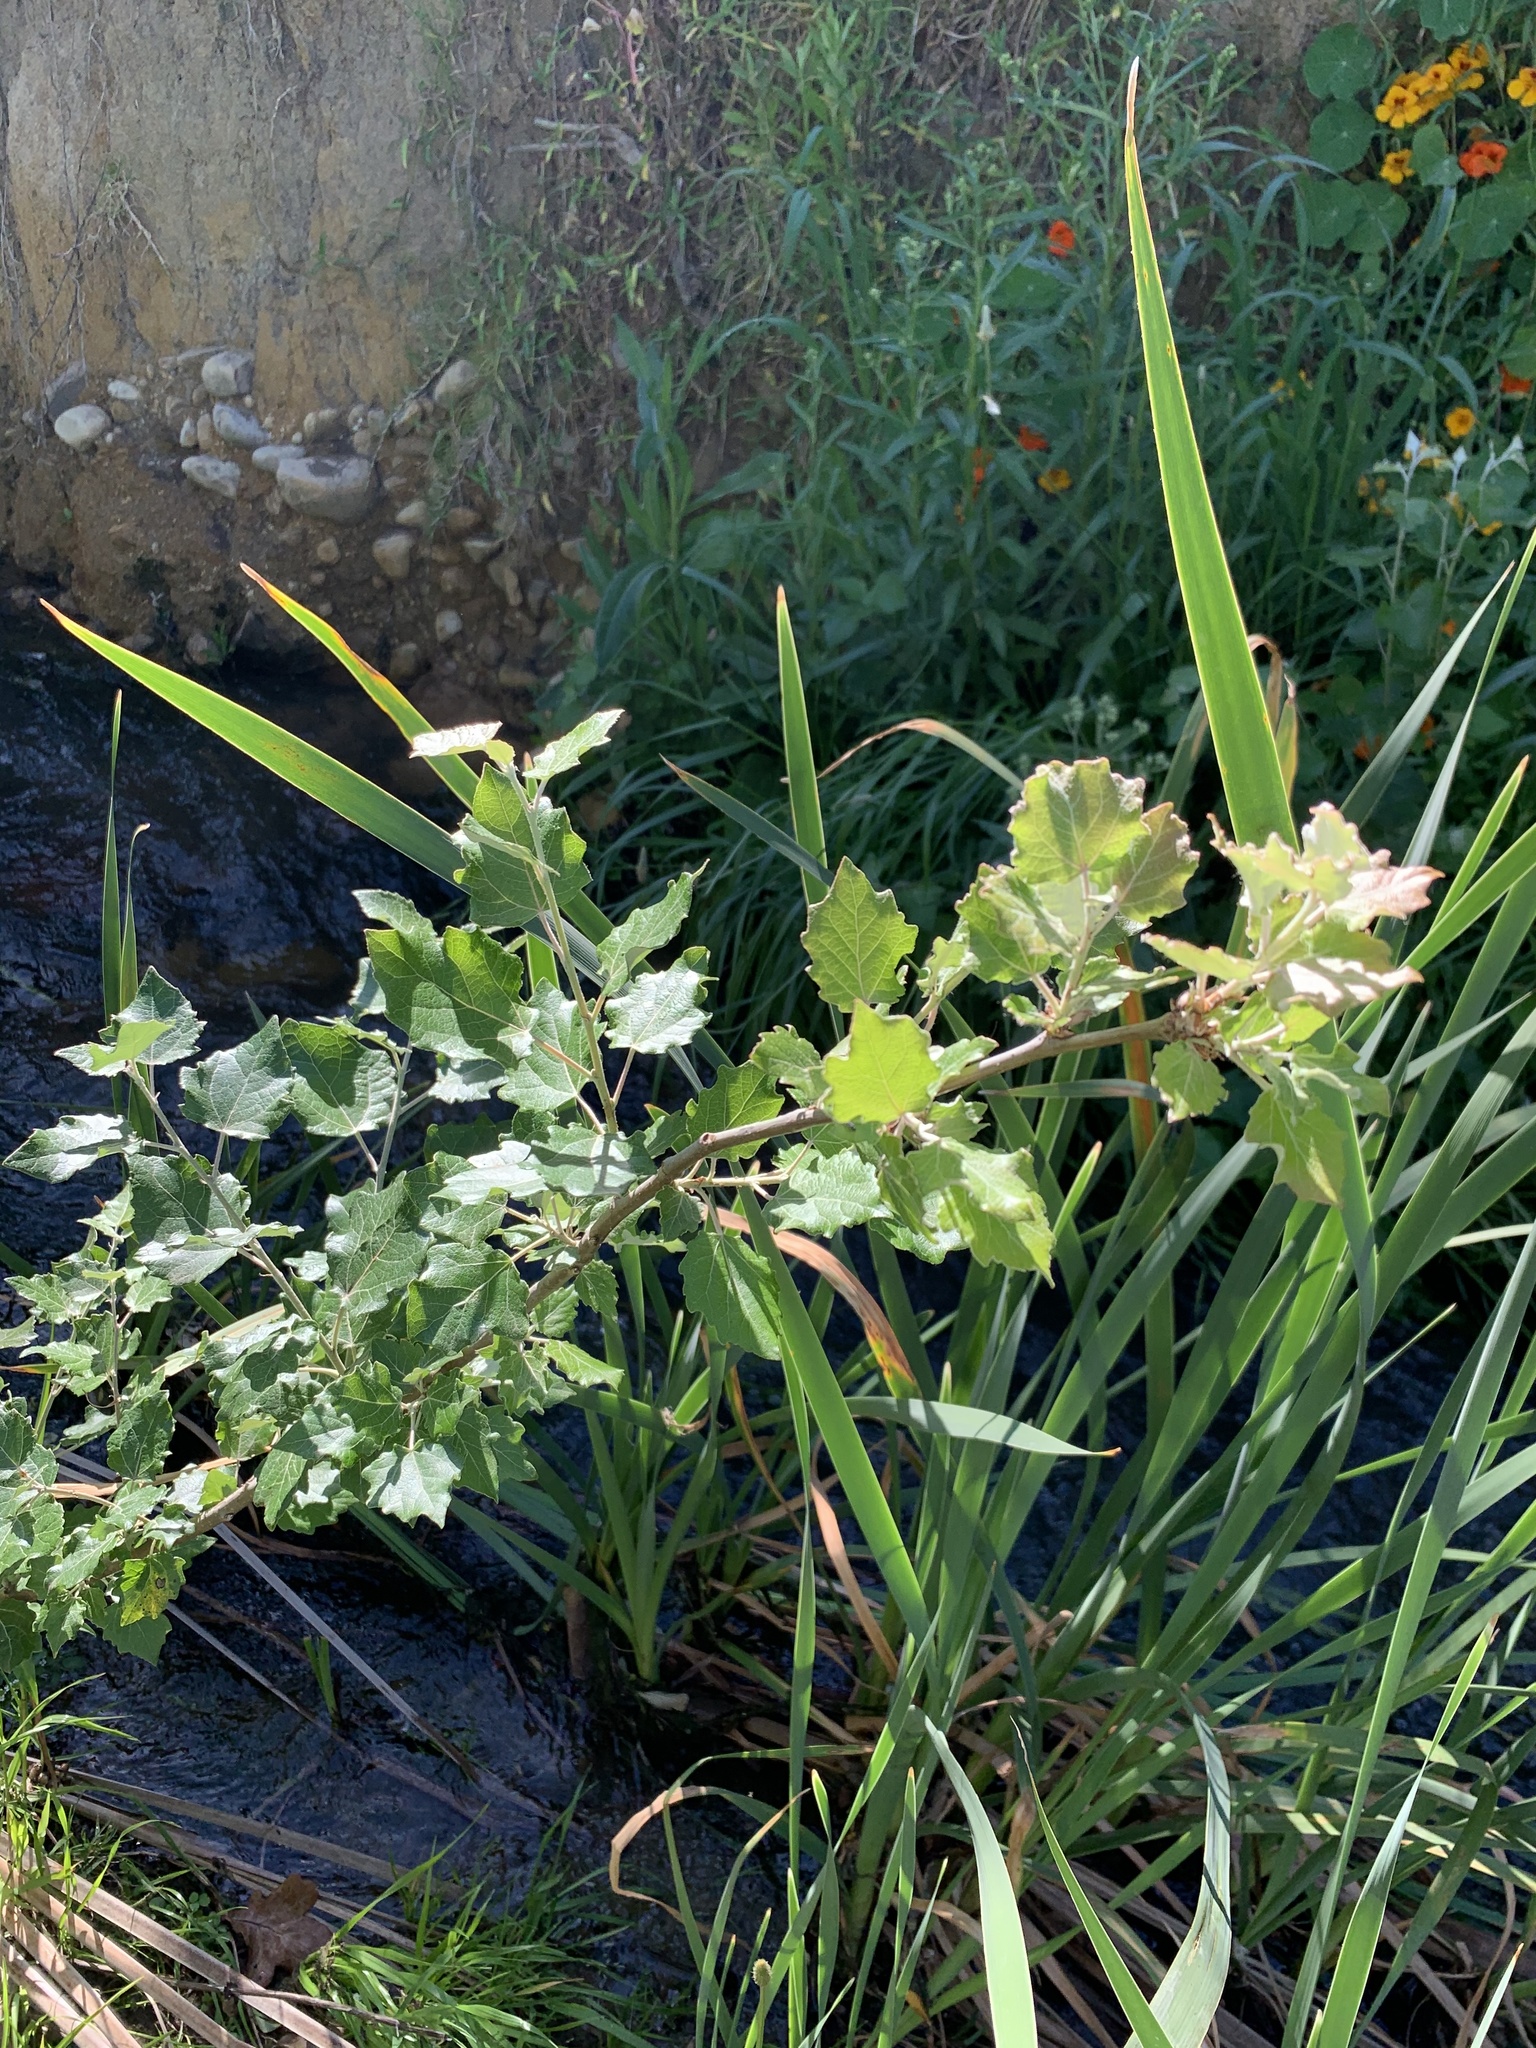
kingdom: Plantae
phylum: Tracheophyta
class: Magnoliopsida
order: Malpighiales
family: Salicaceae
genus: Populus
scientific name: Populus canescens
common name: Gray poplar
